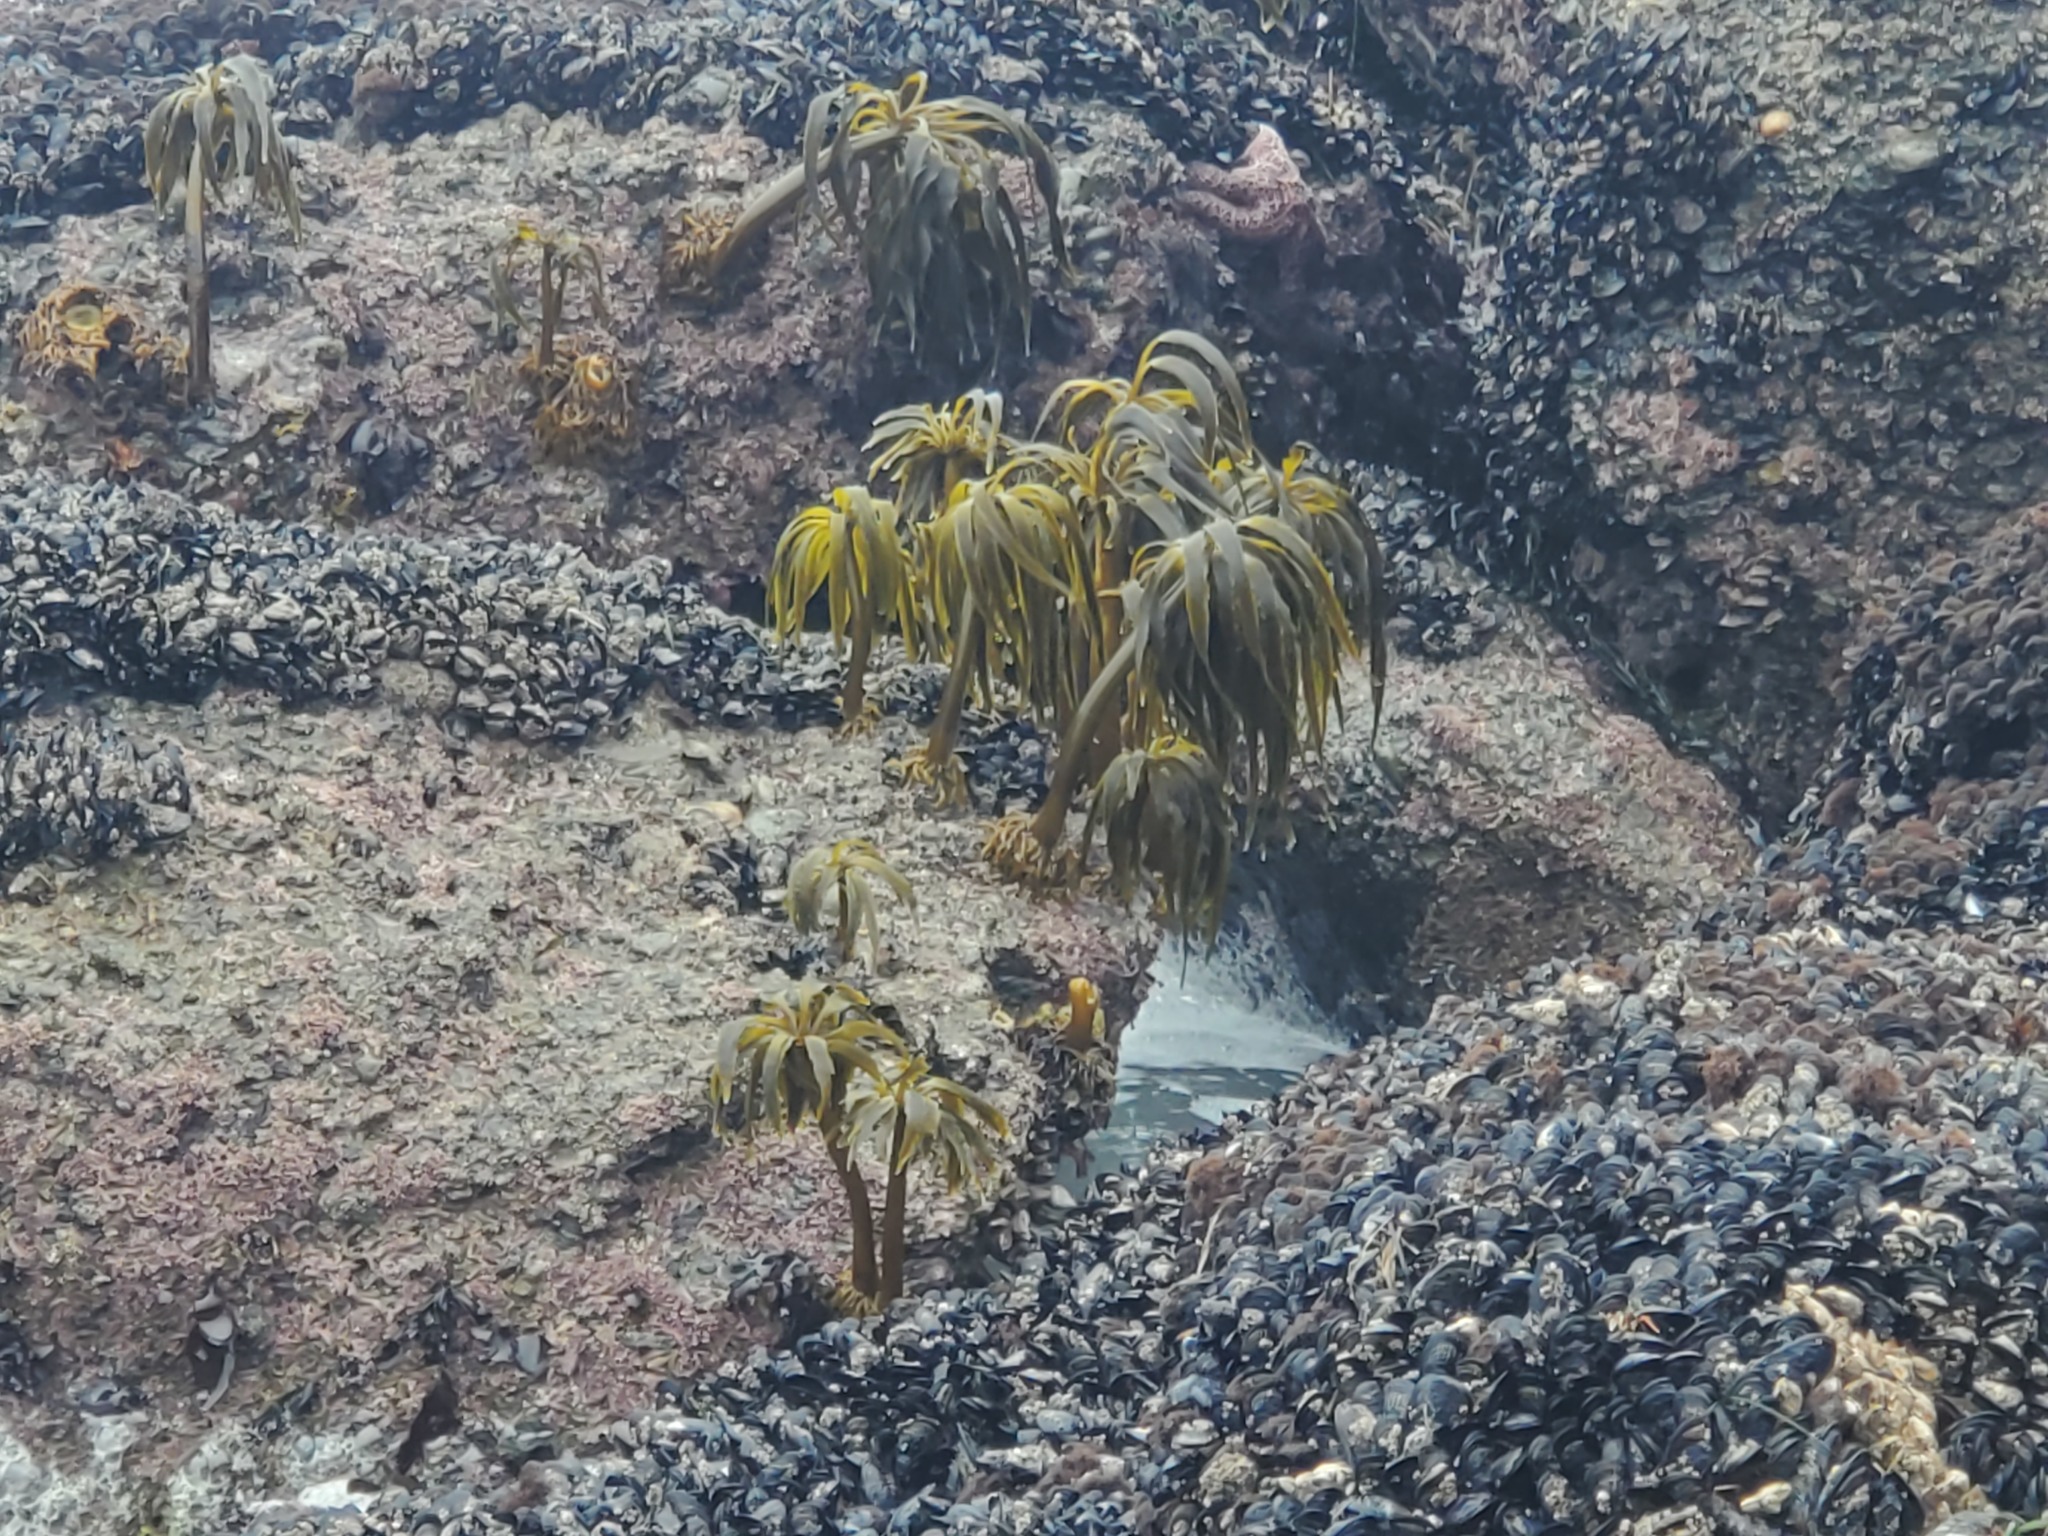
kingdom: Chromista
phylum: Ochrophyta
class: Phaeophyceae
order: Laminariales
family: Laminariaceae
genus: Postelsia
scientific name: Postelsia palmiformis
